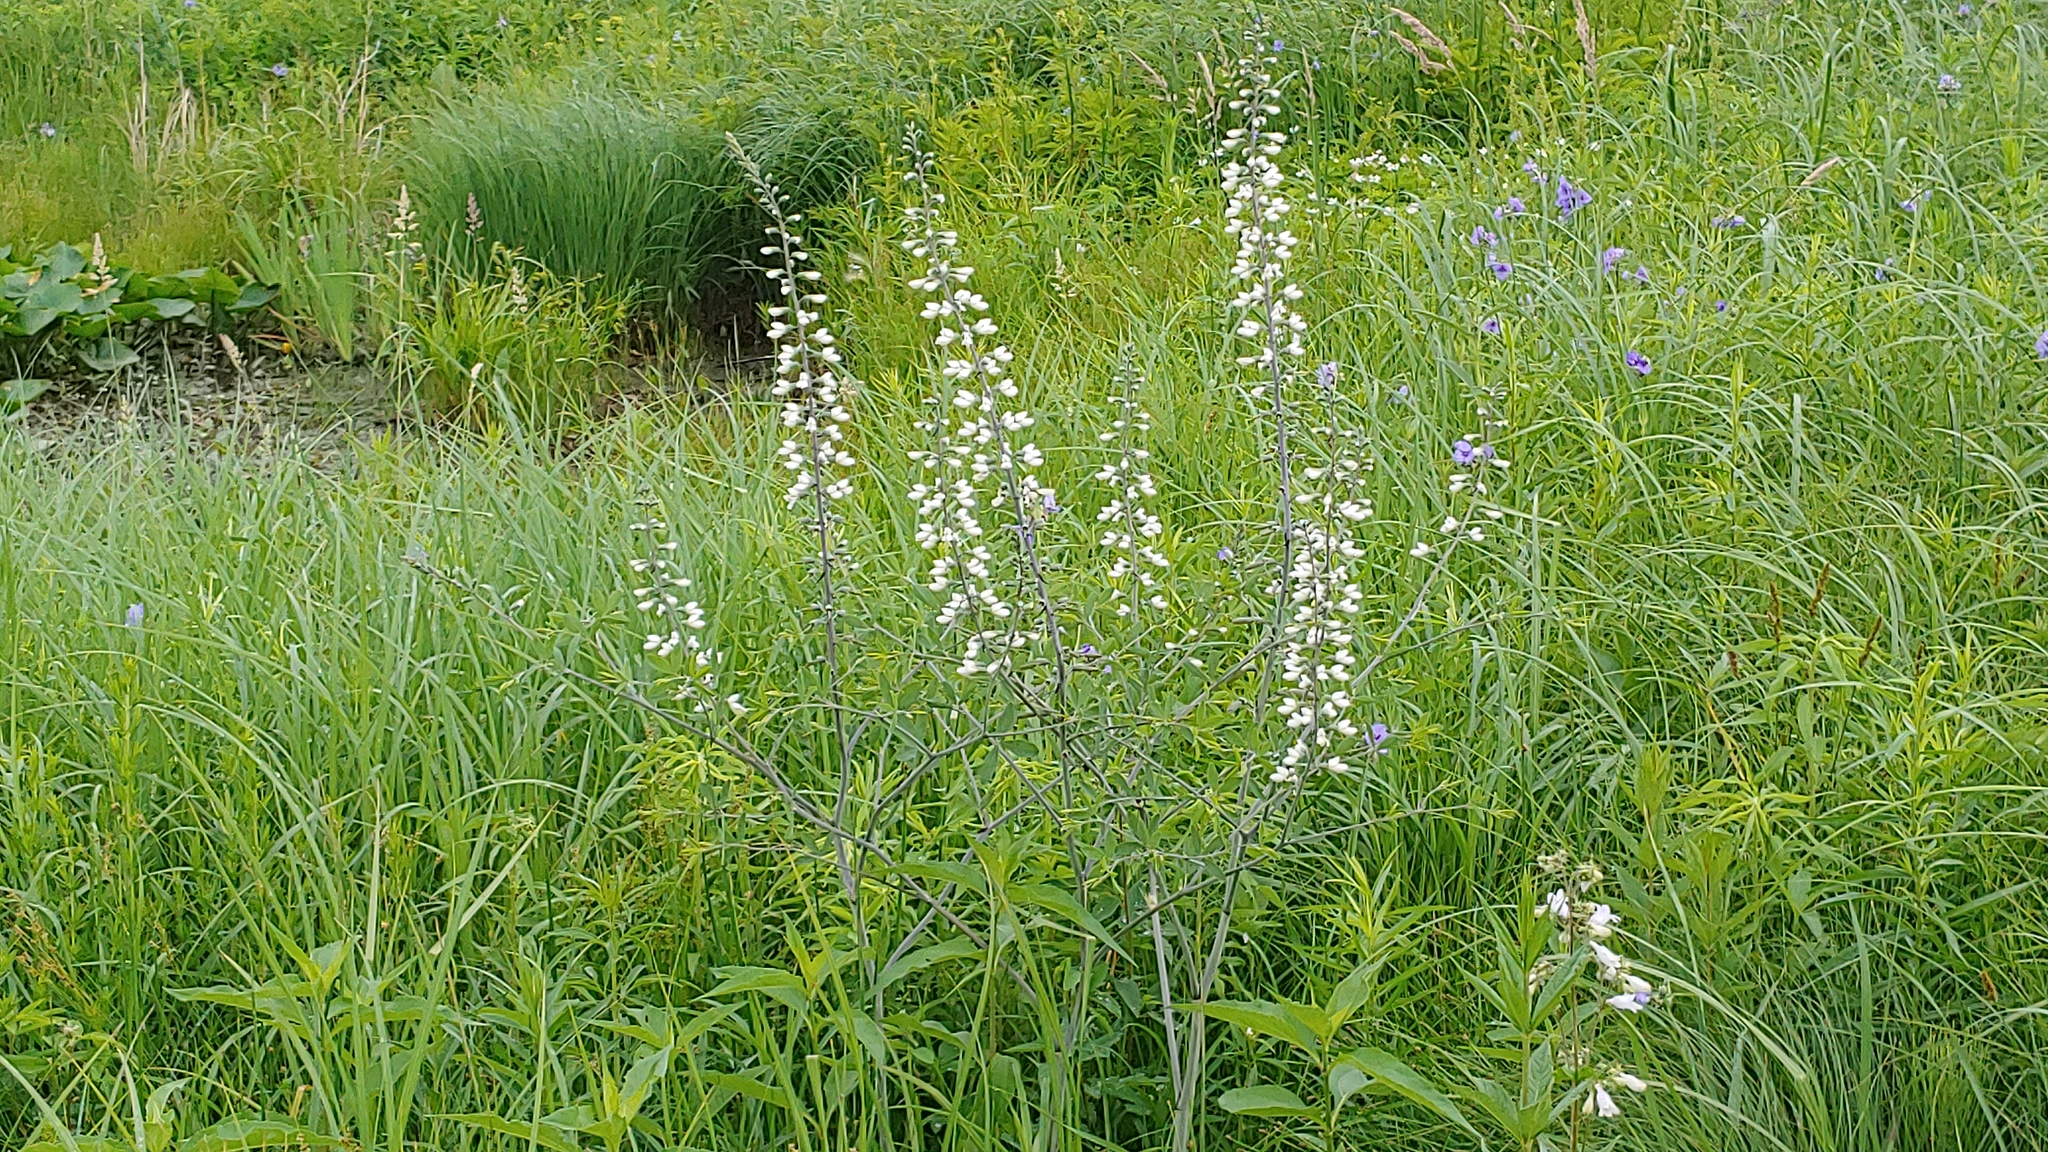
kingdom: Plantae
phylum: Tracheophyta
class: Magnoliopsida
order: Fabales
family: Fabaceae
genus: Baptisia
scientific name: Baptisia alba
